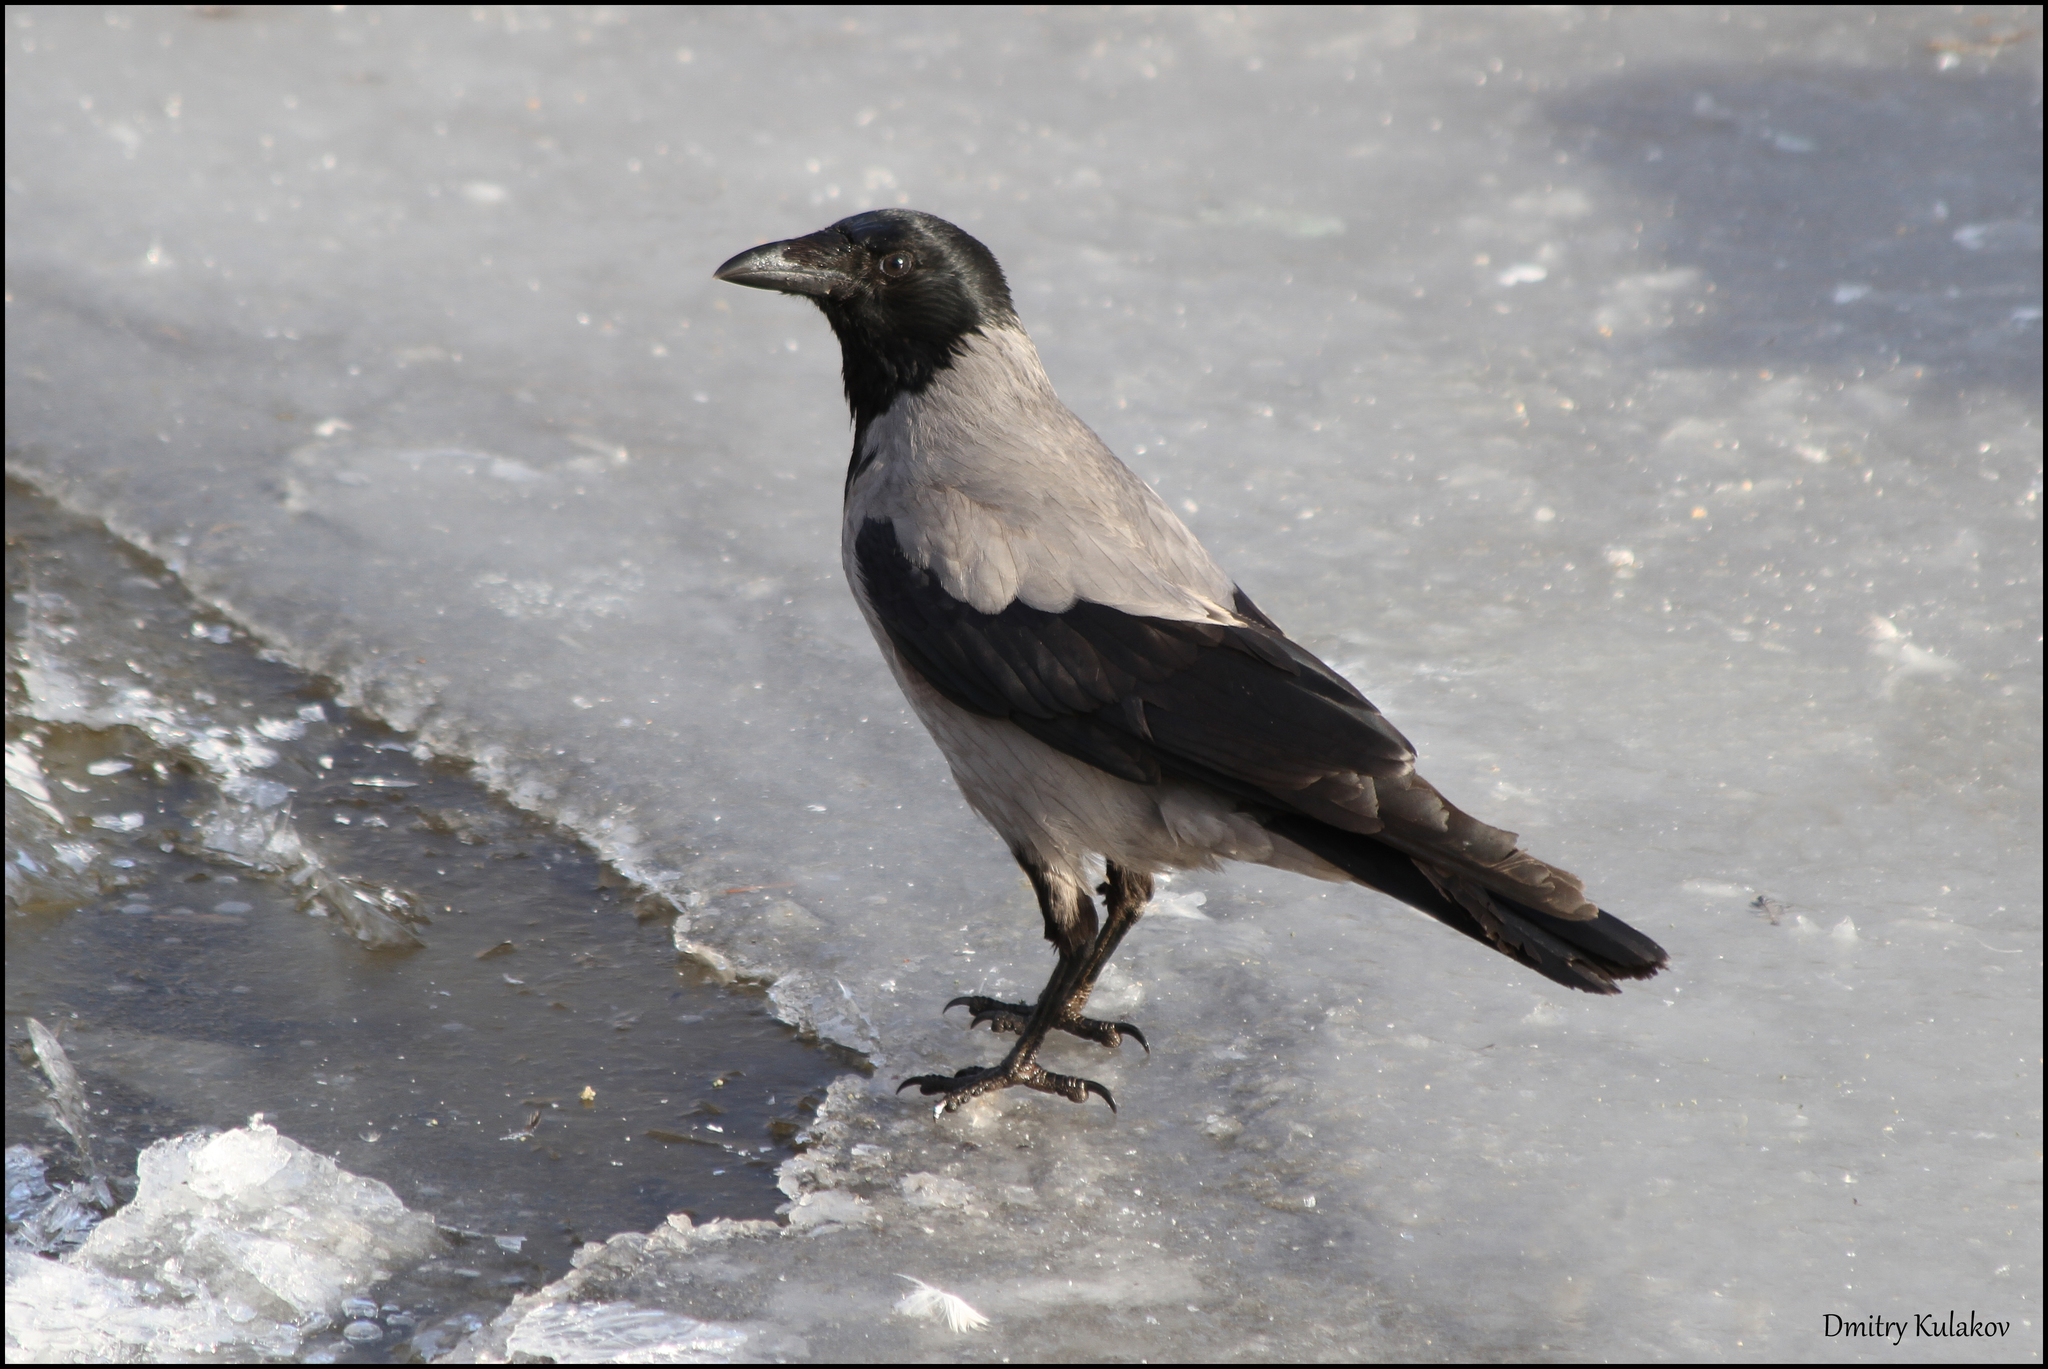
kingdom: Animalia
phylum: Chordata
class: Aves
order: Passeriformes
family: Corvidae
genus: Corvus
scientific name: Corvus cornix
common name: Hooded crow
